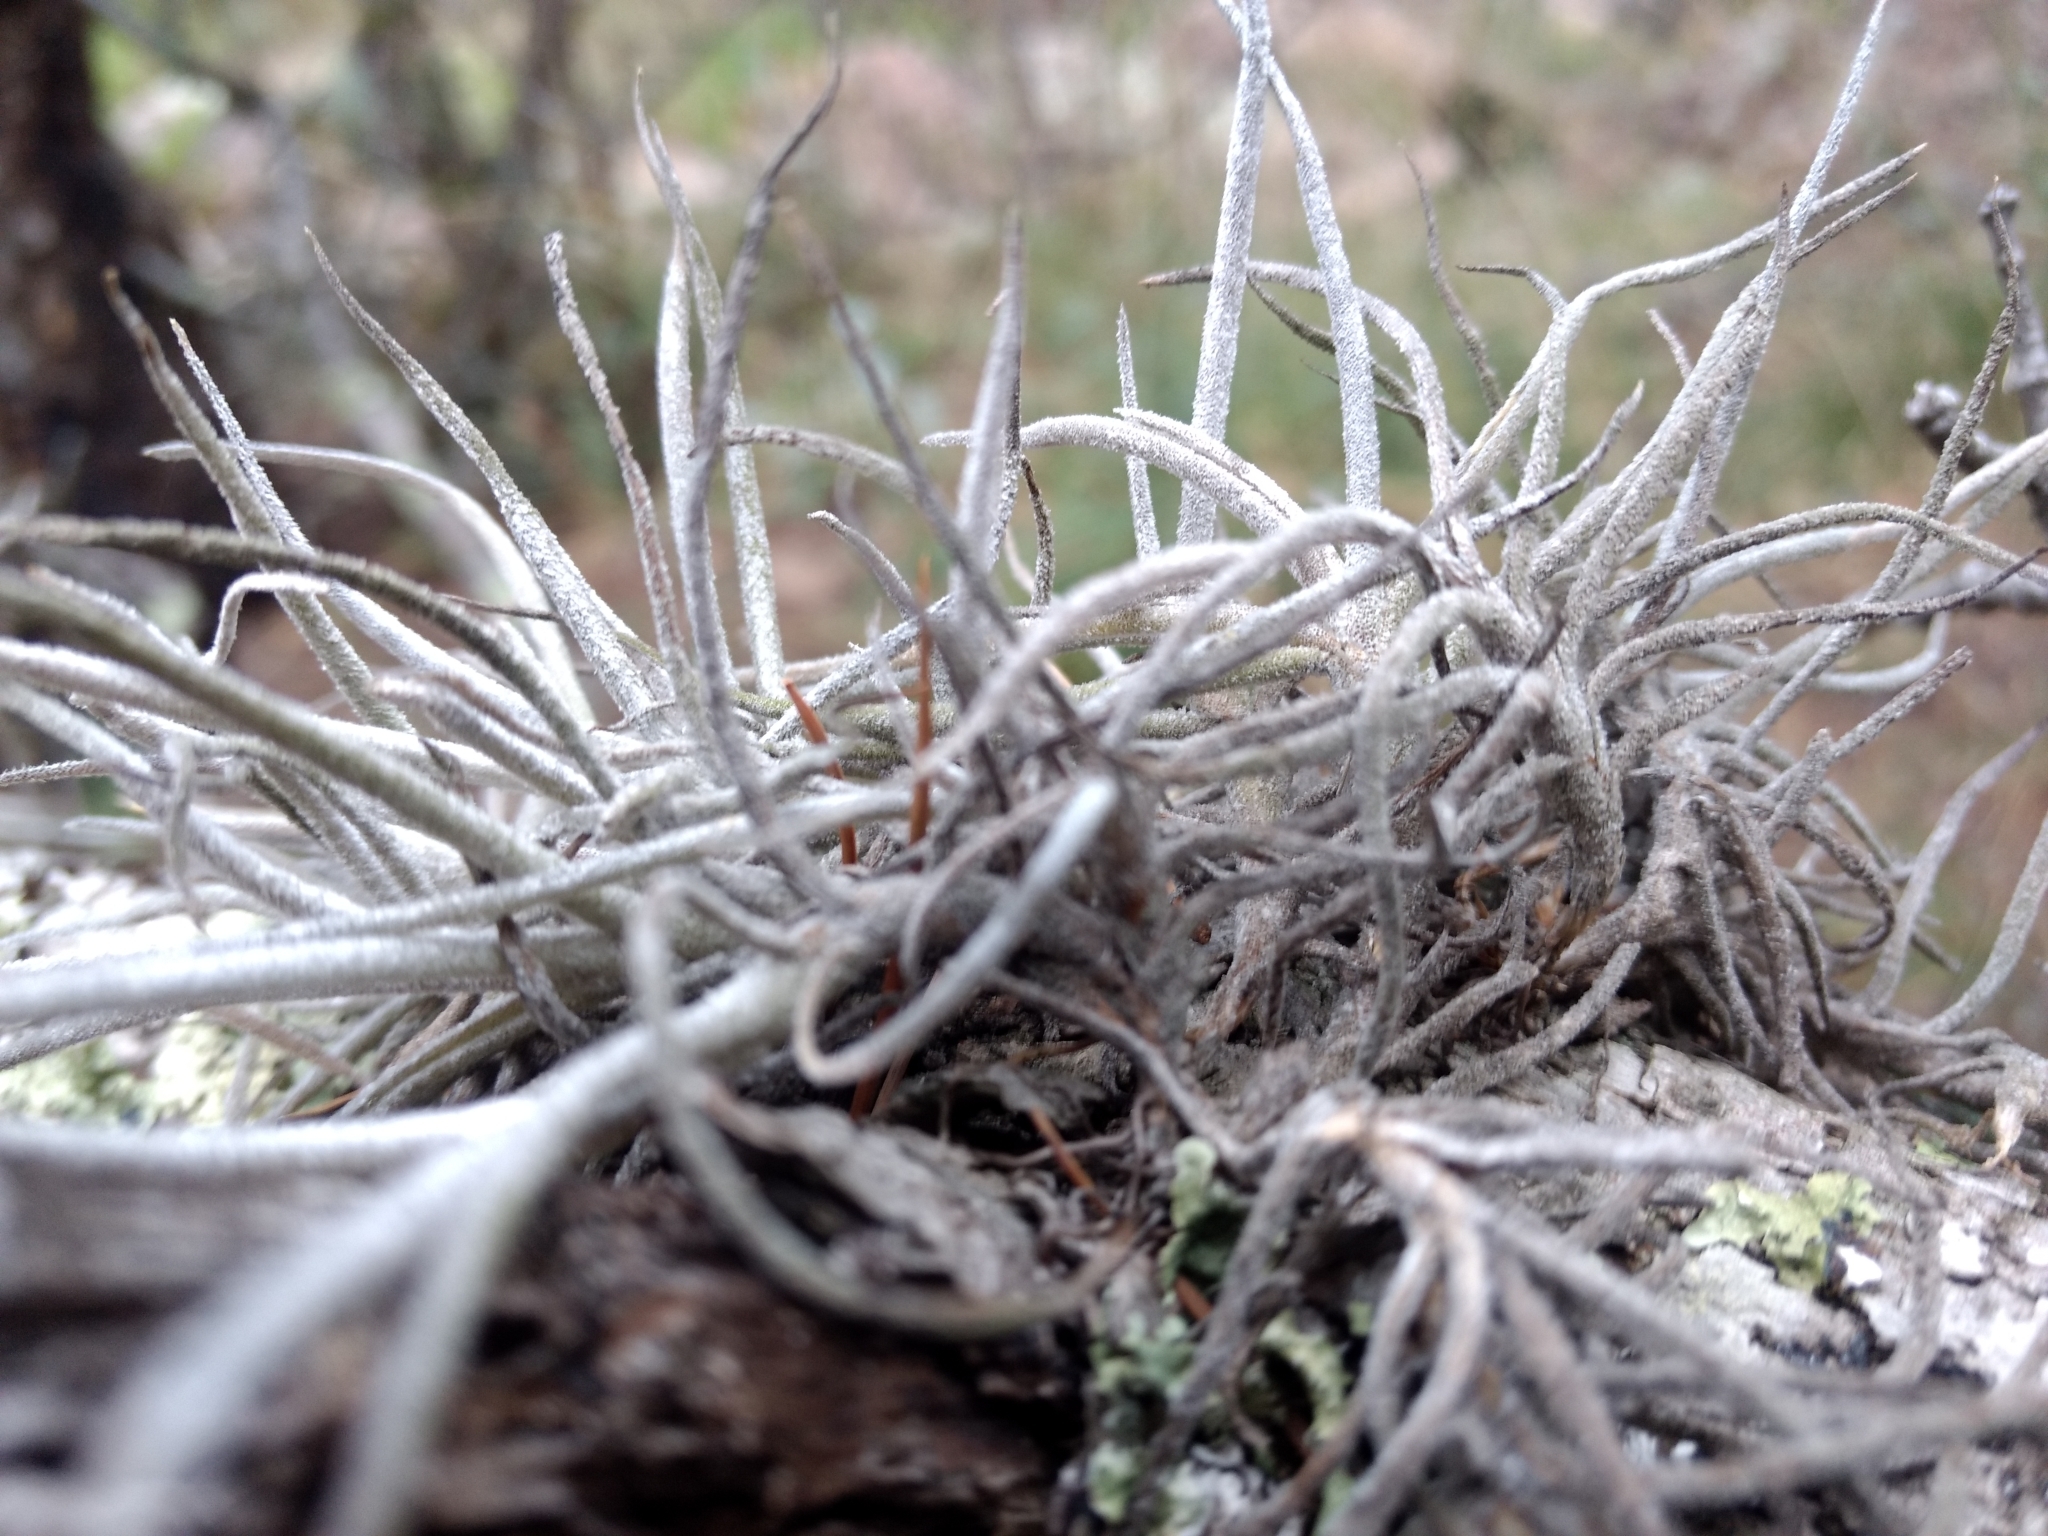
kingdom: Plantae
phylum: Tracheophyta
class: Liliopsida
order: Poales
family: Bromeliaceae
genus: Tillandsia
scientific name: Tillandsia recurvata
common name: Small ballmoss
